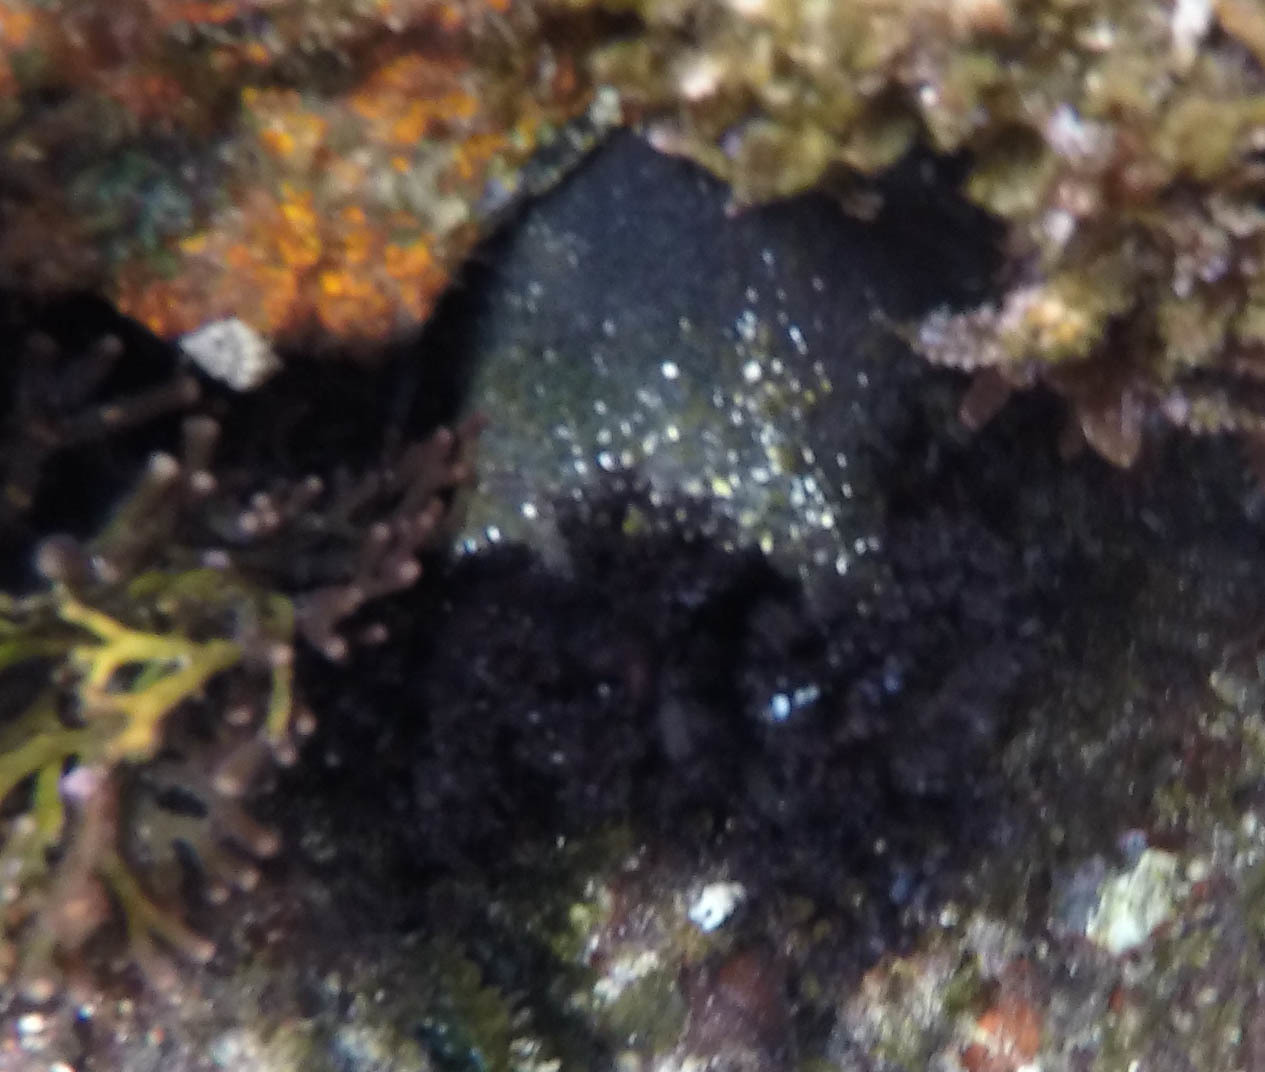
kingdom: Animalia
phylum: Echinodermata
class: Holothuroidea
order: Holothuriida
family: Holothuriidae
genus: Holothuria
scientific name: Holothuria cinerascens
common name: Ashy sea cucumber
